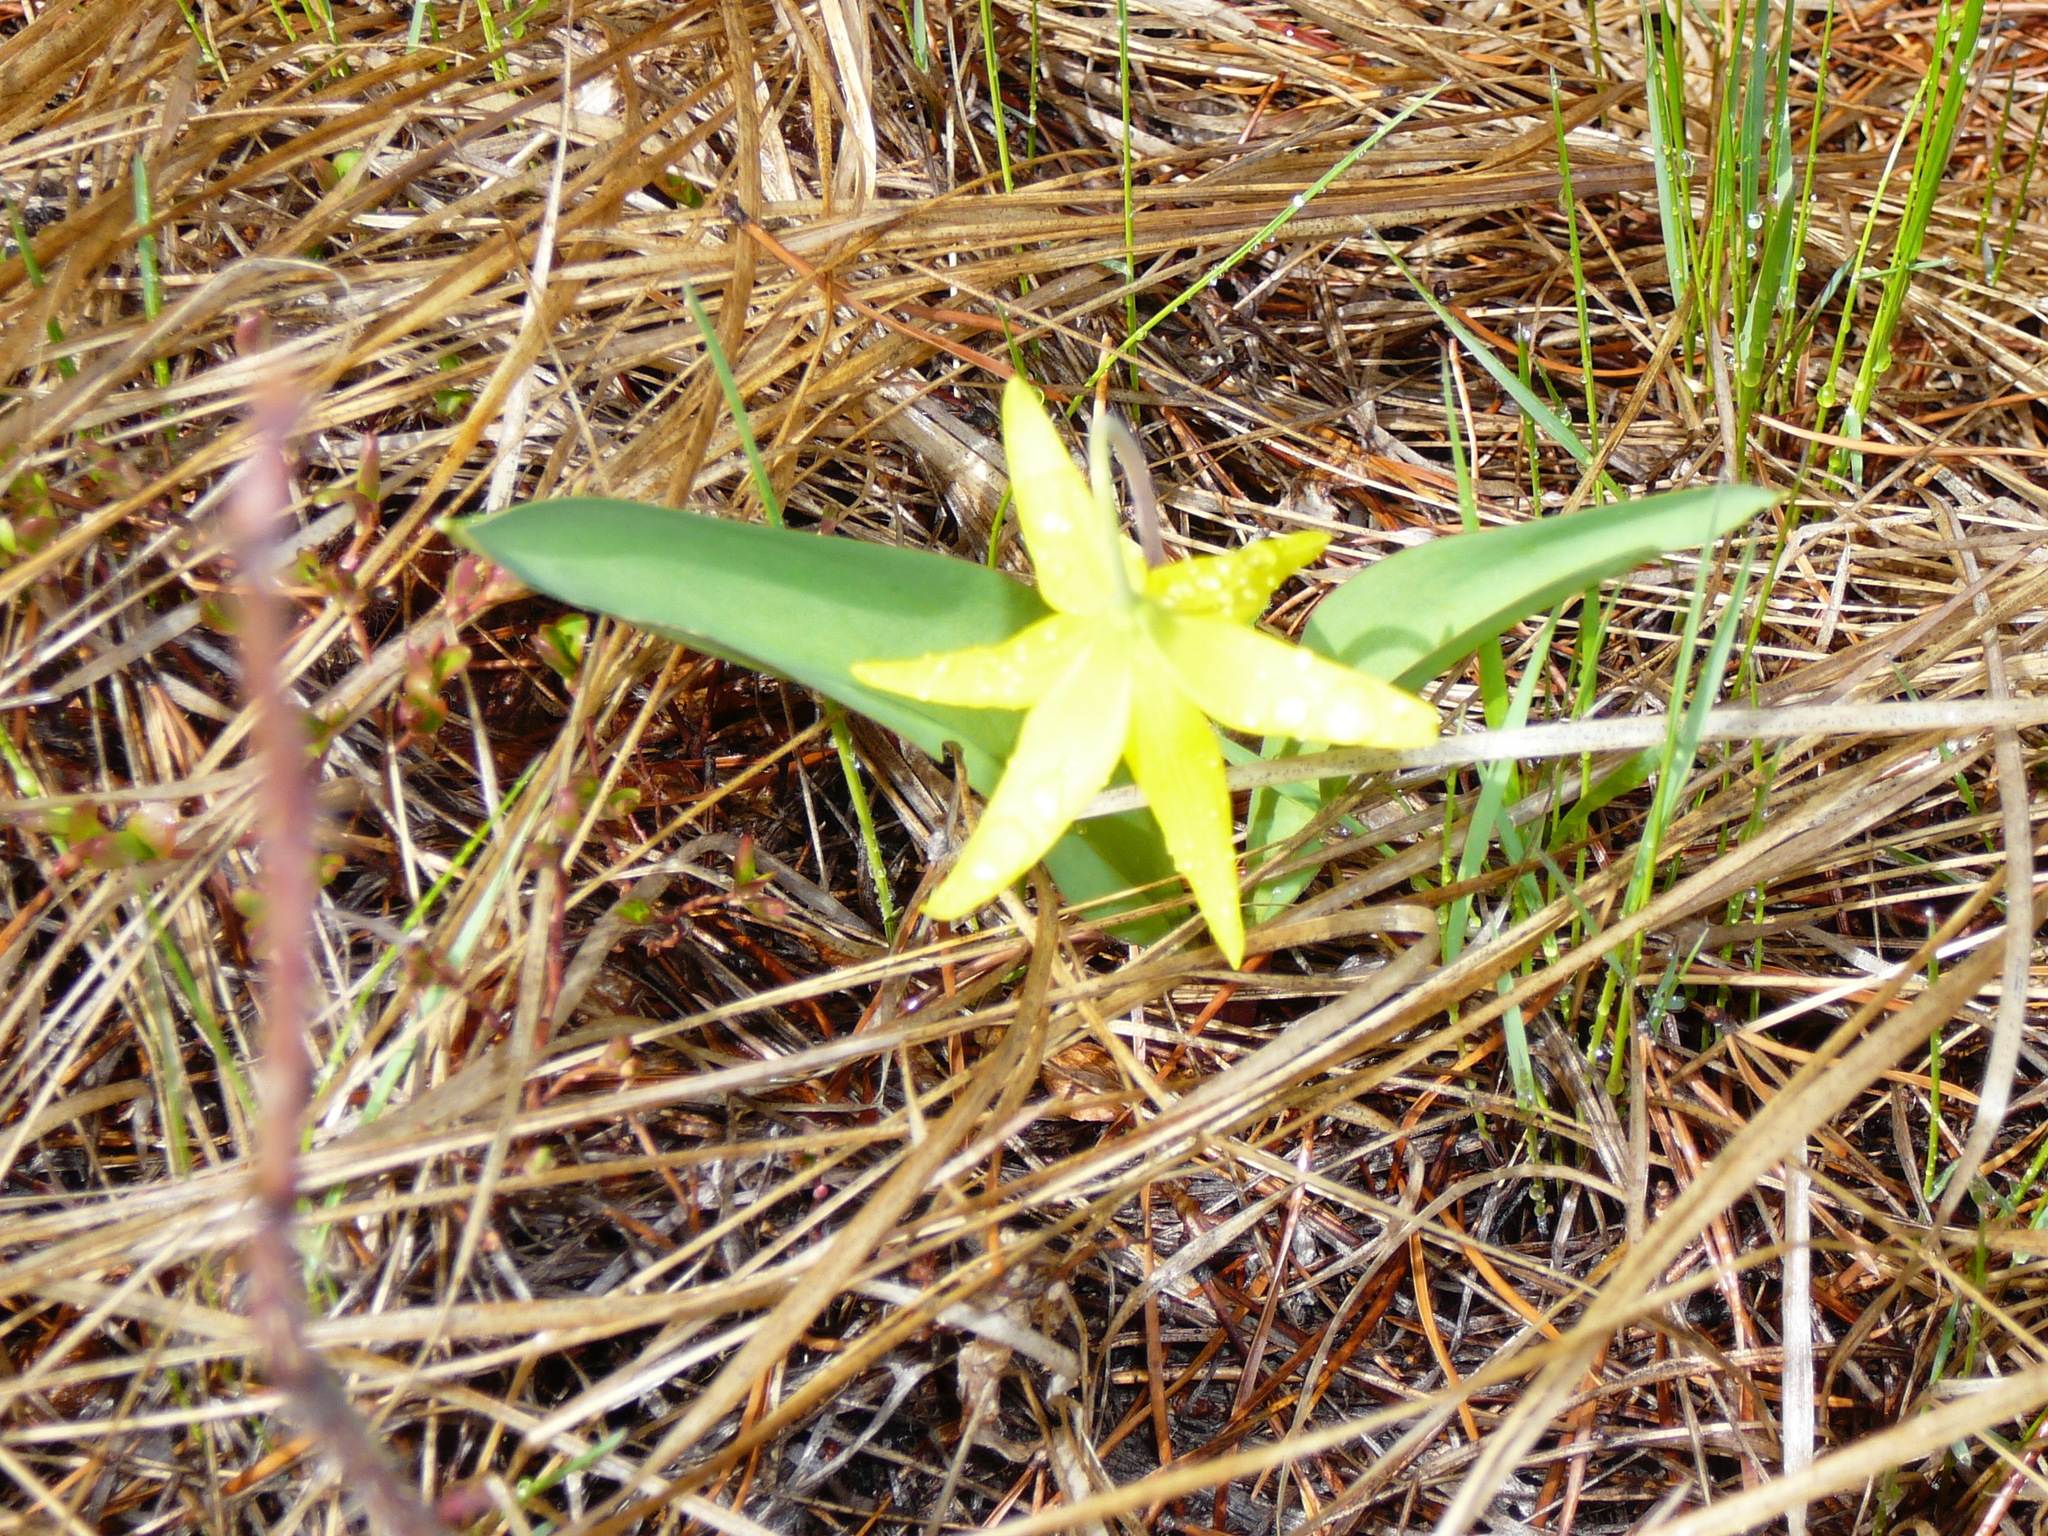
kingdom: Plantae
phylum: Tracheophyta
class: Liliopsida
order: Liliales
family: Liliaceae
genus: Erythronium
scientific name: Erythronium grandiflorum
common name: Avalanche-lily
